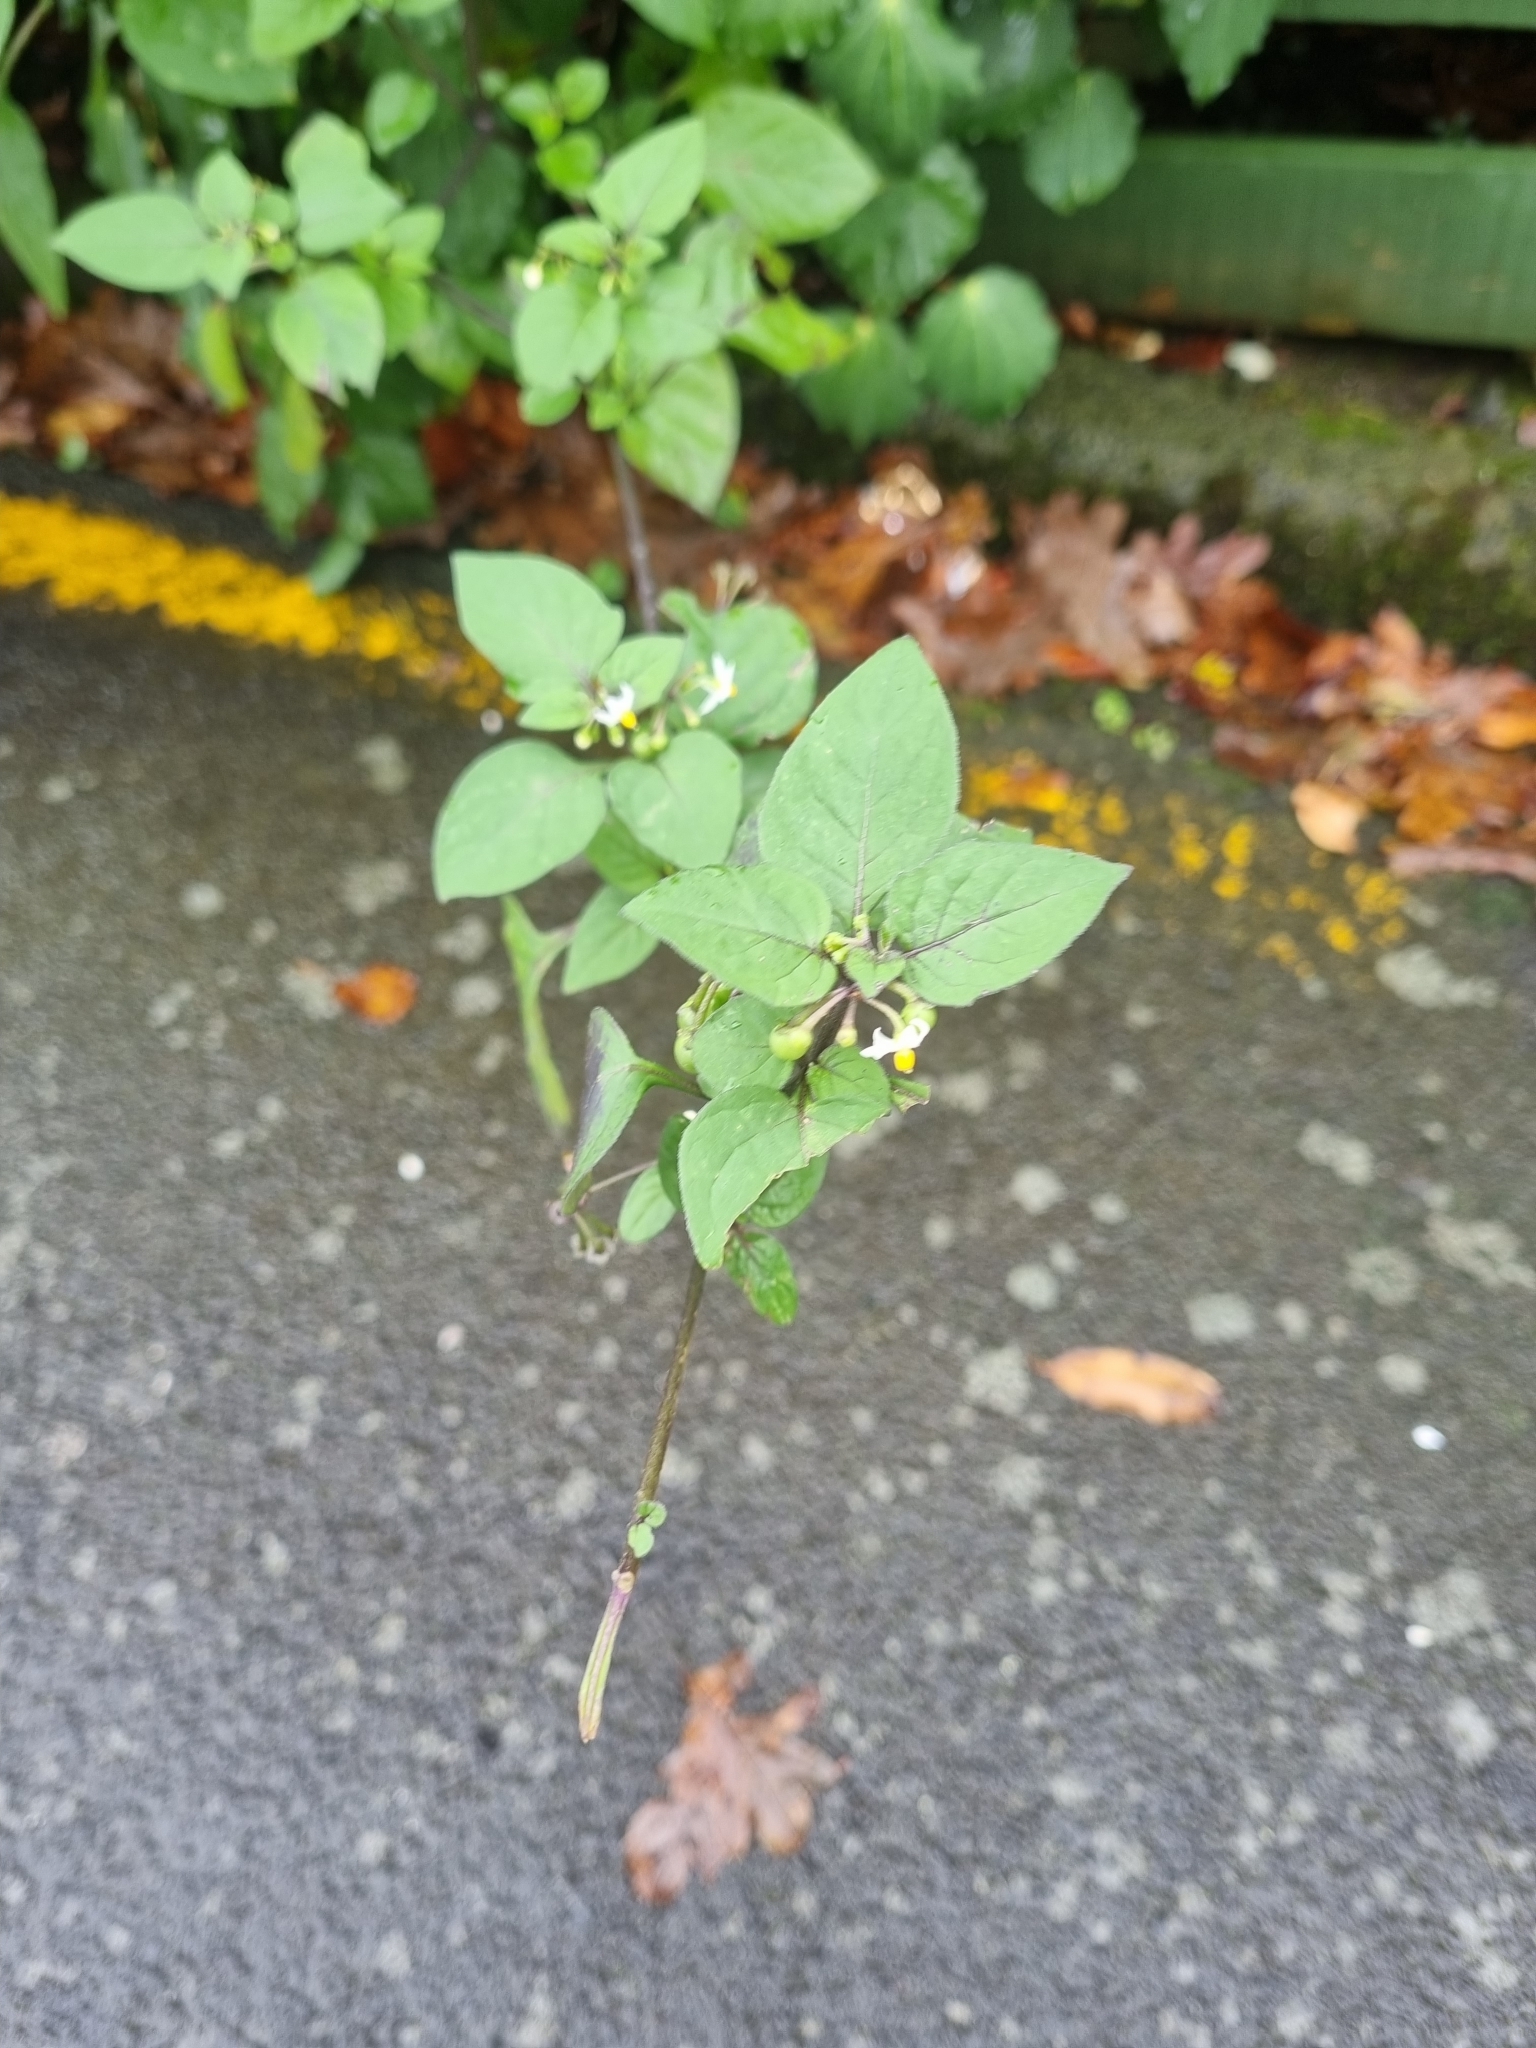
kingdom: Plantae
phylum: Tracheophyta
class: Magnoliopsida
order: Solanales
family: Solanaceae
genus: Solanum
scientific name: Solanum nigrum
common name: Black nightshade
